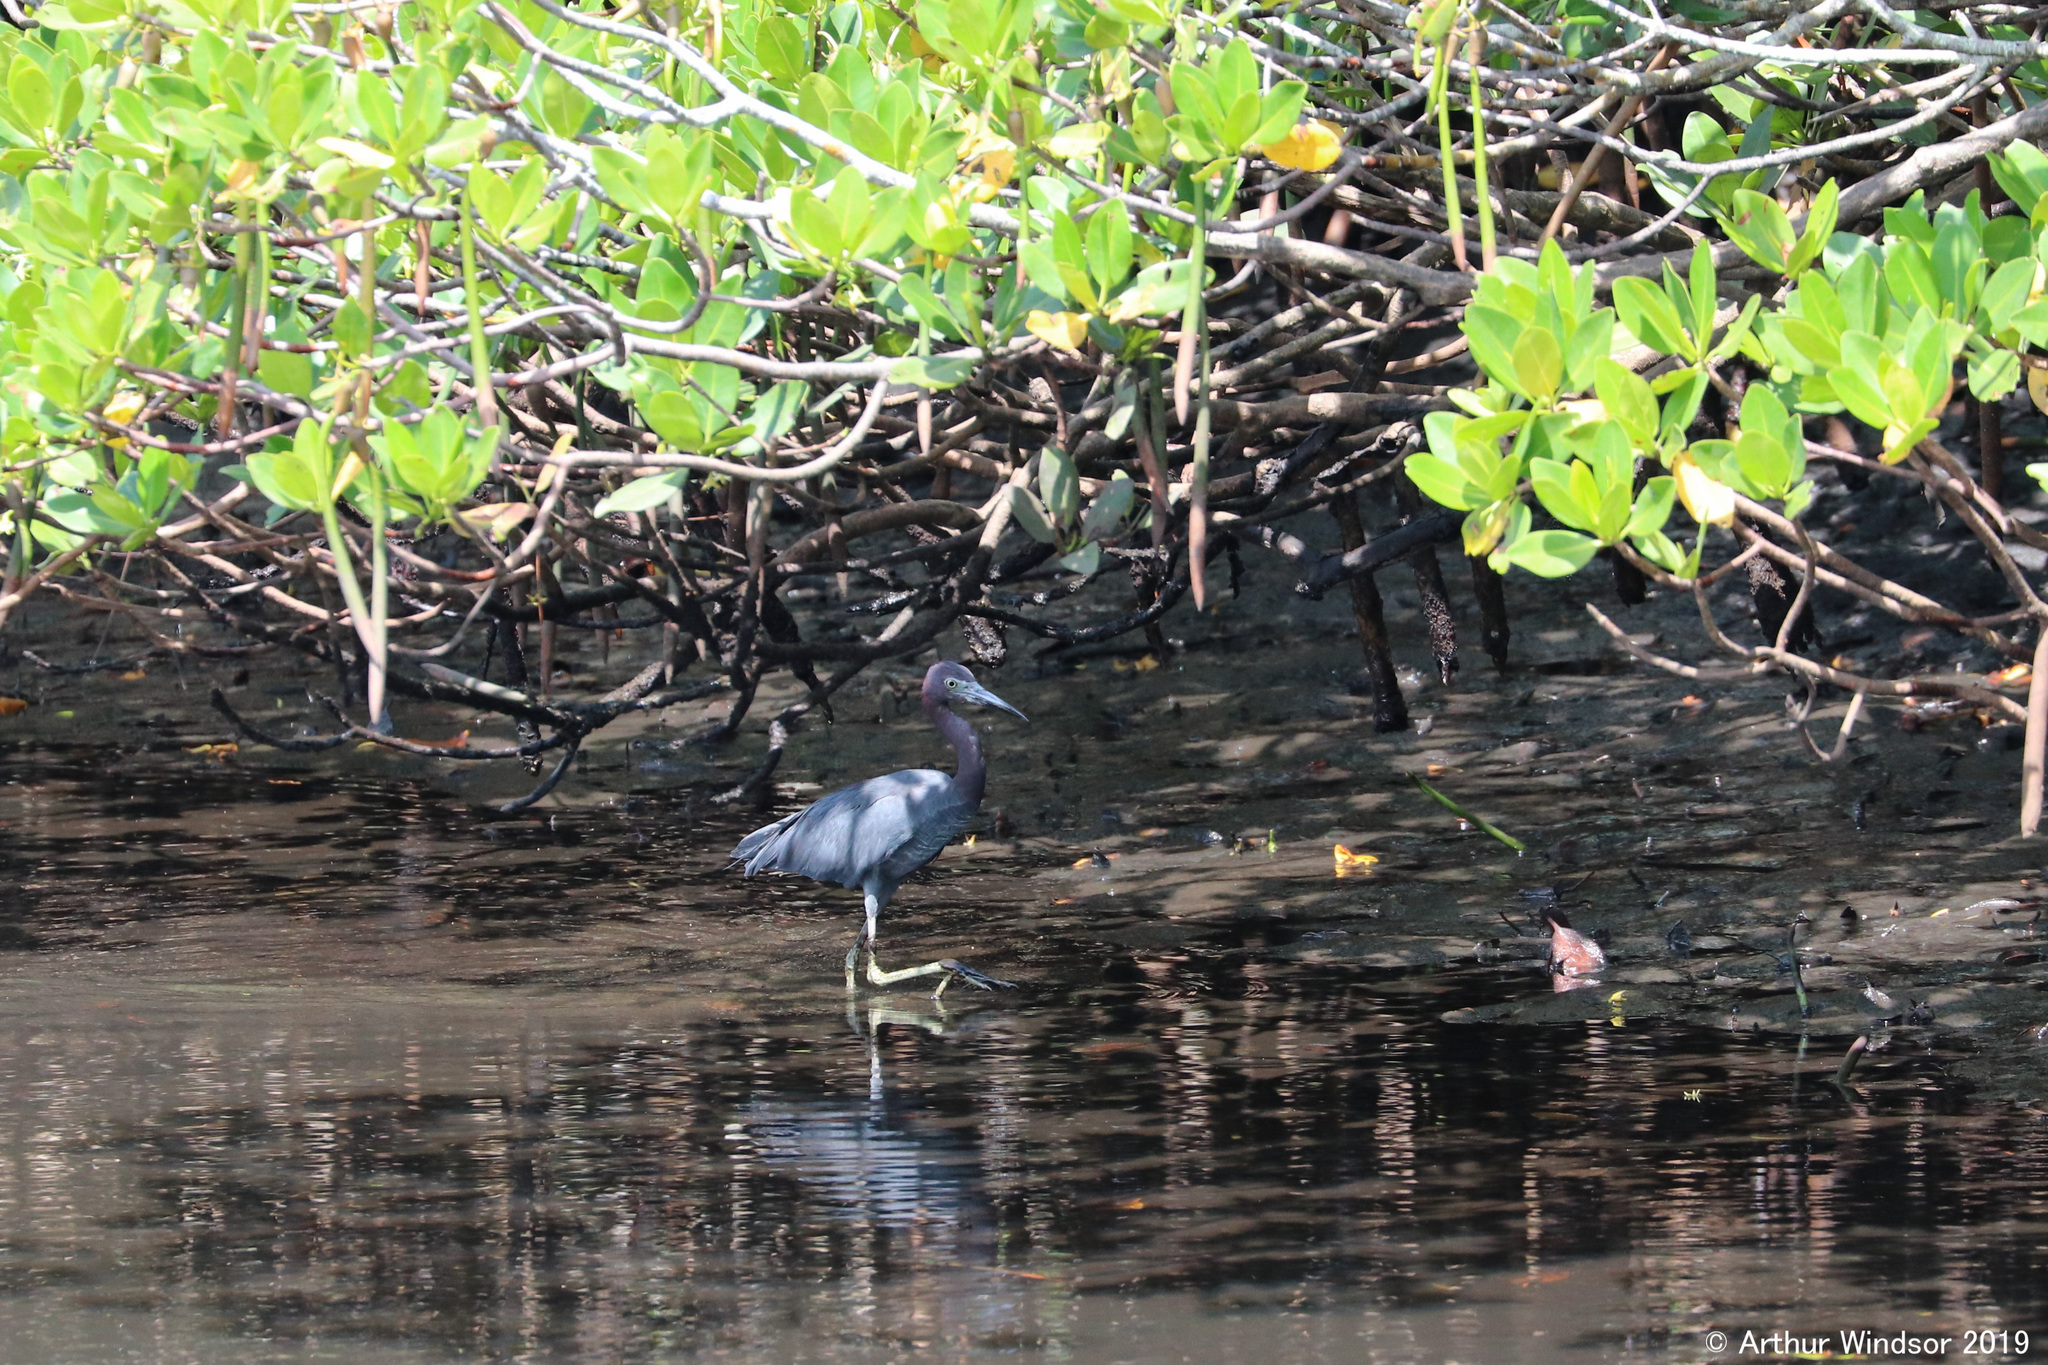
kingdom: Animalia
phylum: Chordata
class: Aves
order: Pelecaniformes
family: Ardeidae
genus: Egretta
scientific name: Egretta caerulea
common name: Little blue heron
